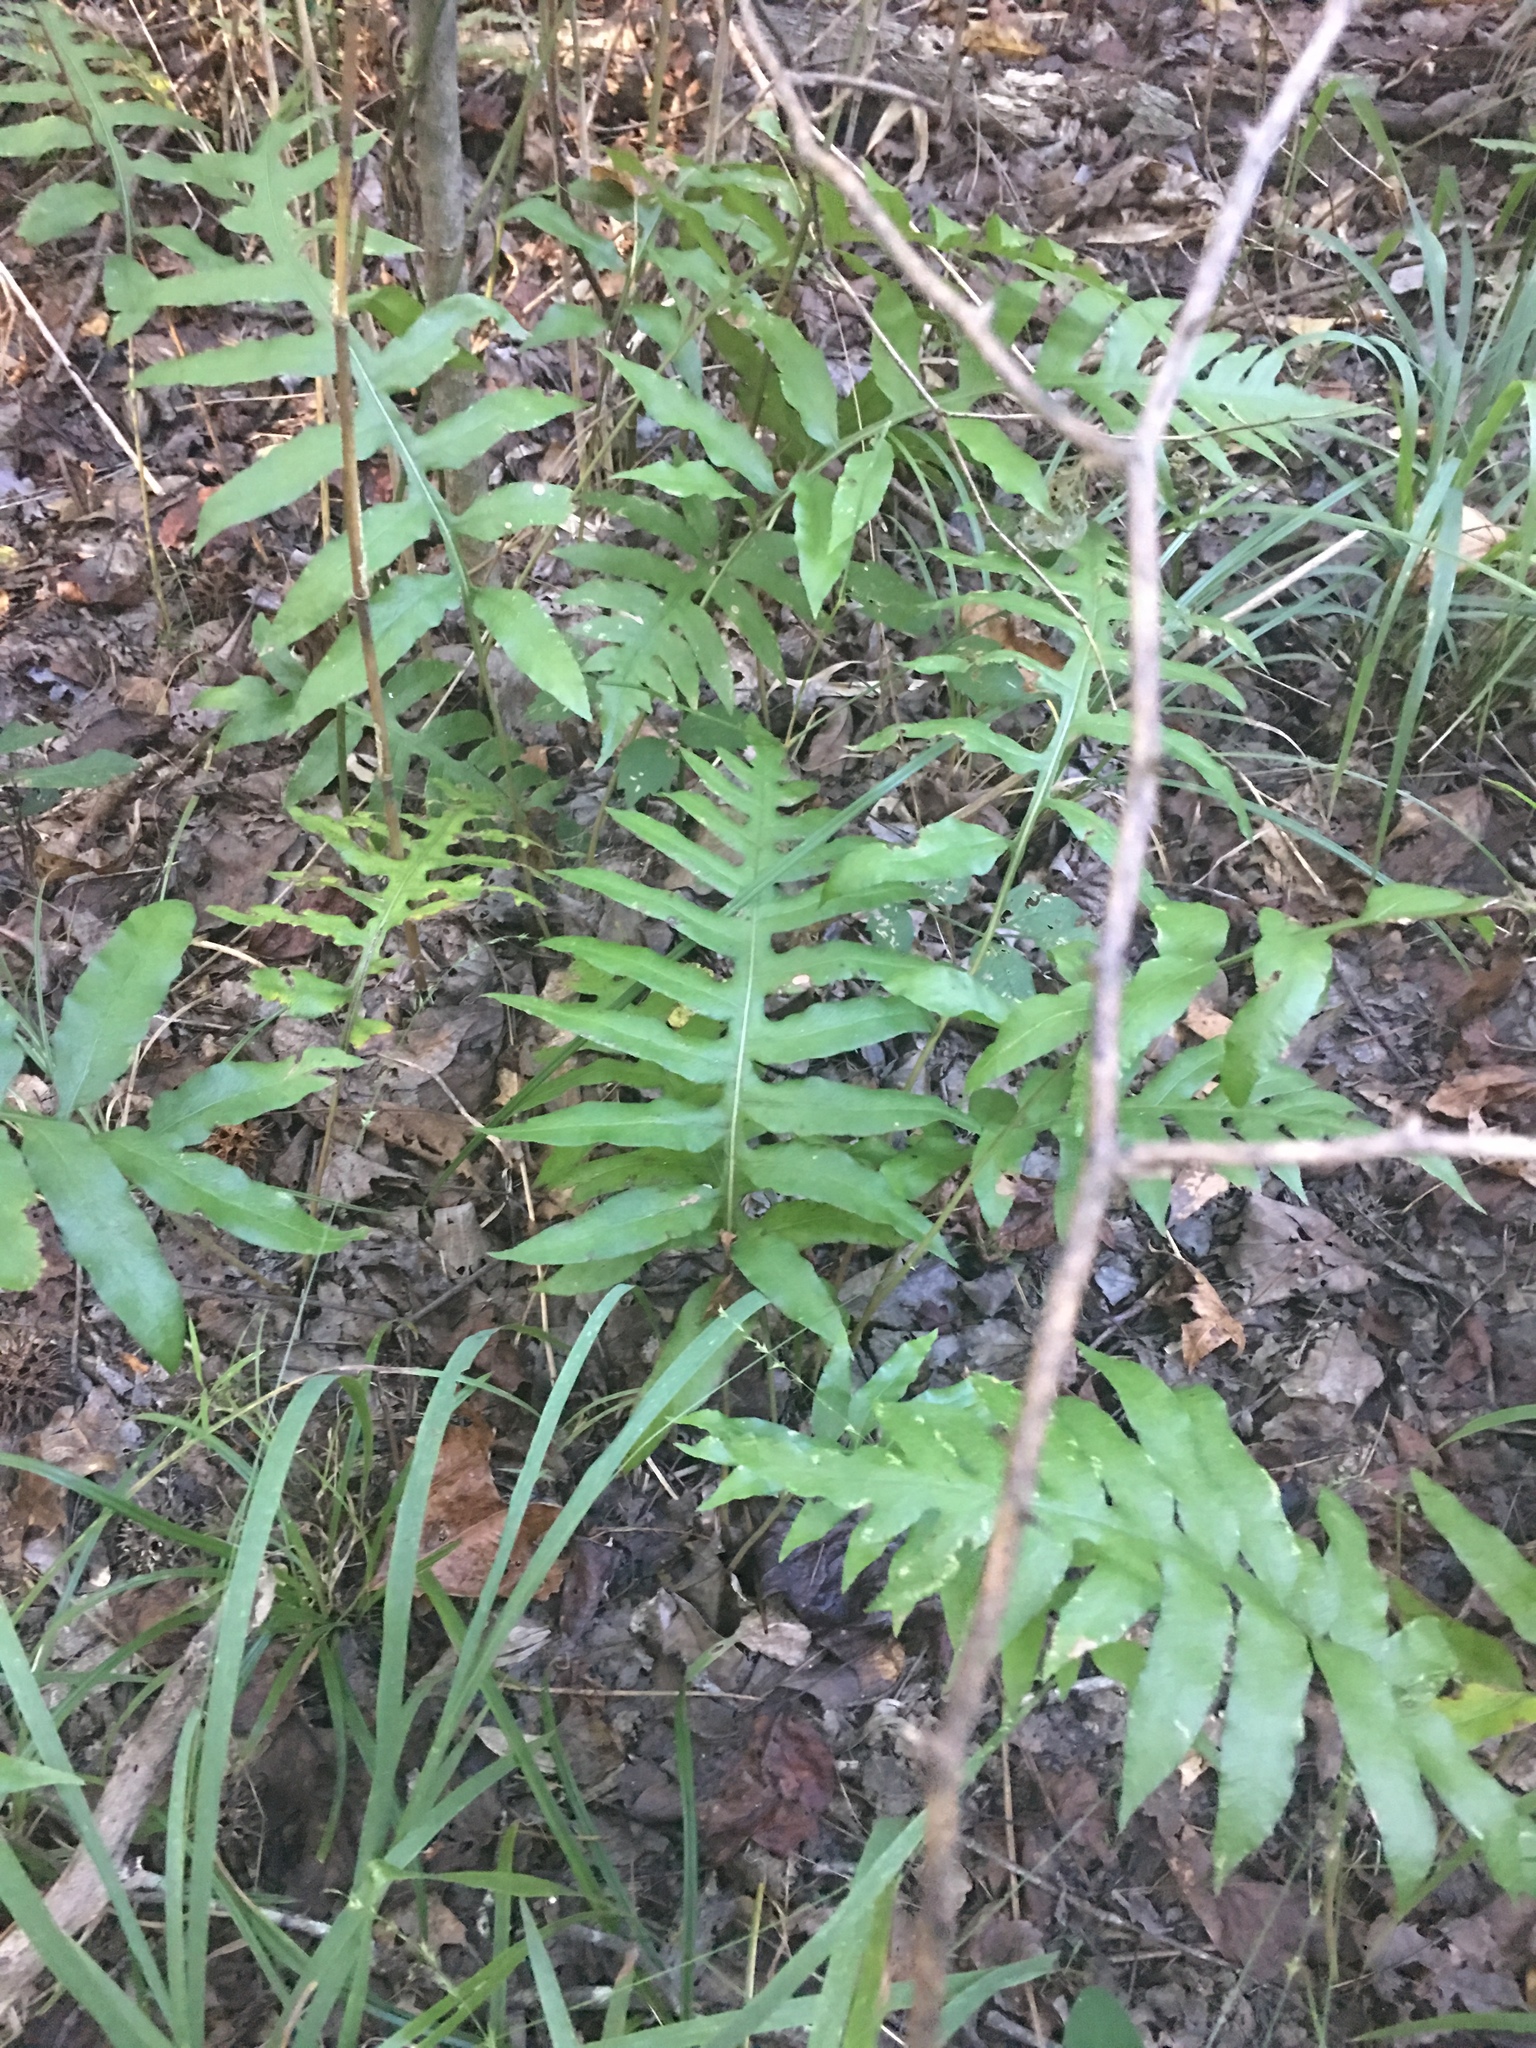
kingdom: Plantae
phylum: Tracheophyta
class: Polypodiopsida
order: Polypodiales
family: Blechnaceae
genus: Lorinseria
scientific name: Lorinseria areolata
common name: Dwarf chain fern
